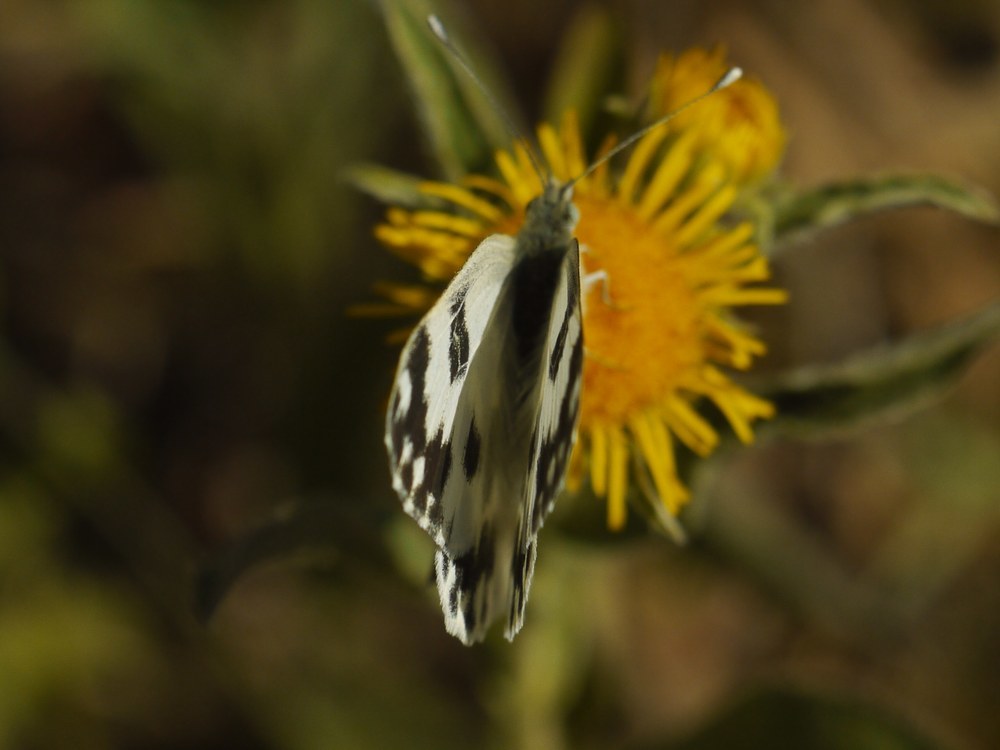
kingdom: Animalia
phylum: Arthropoda
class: Insecta
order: Lepidoptera
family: Pieridae
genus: Pontia
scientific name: Pontia edusa
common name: Eastern bath white
